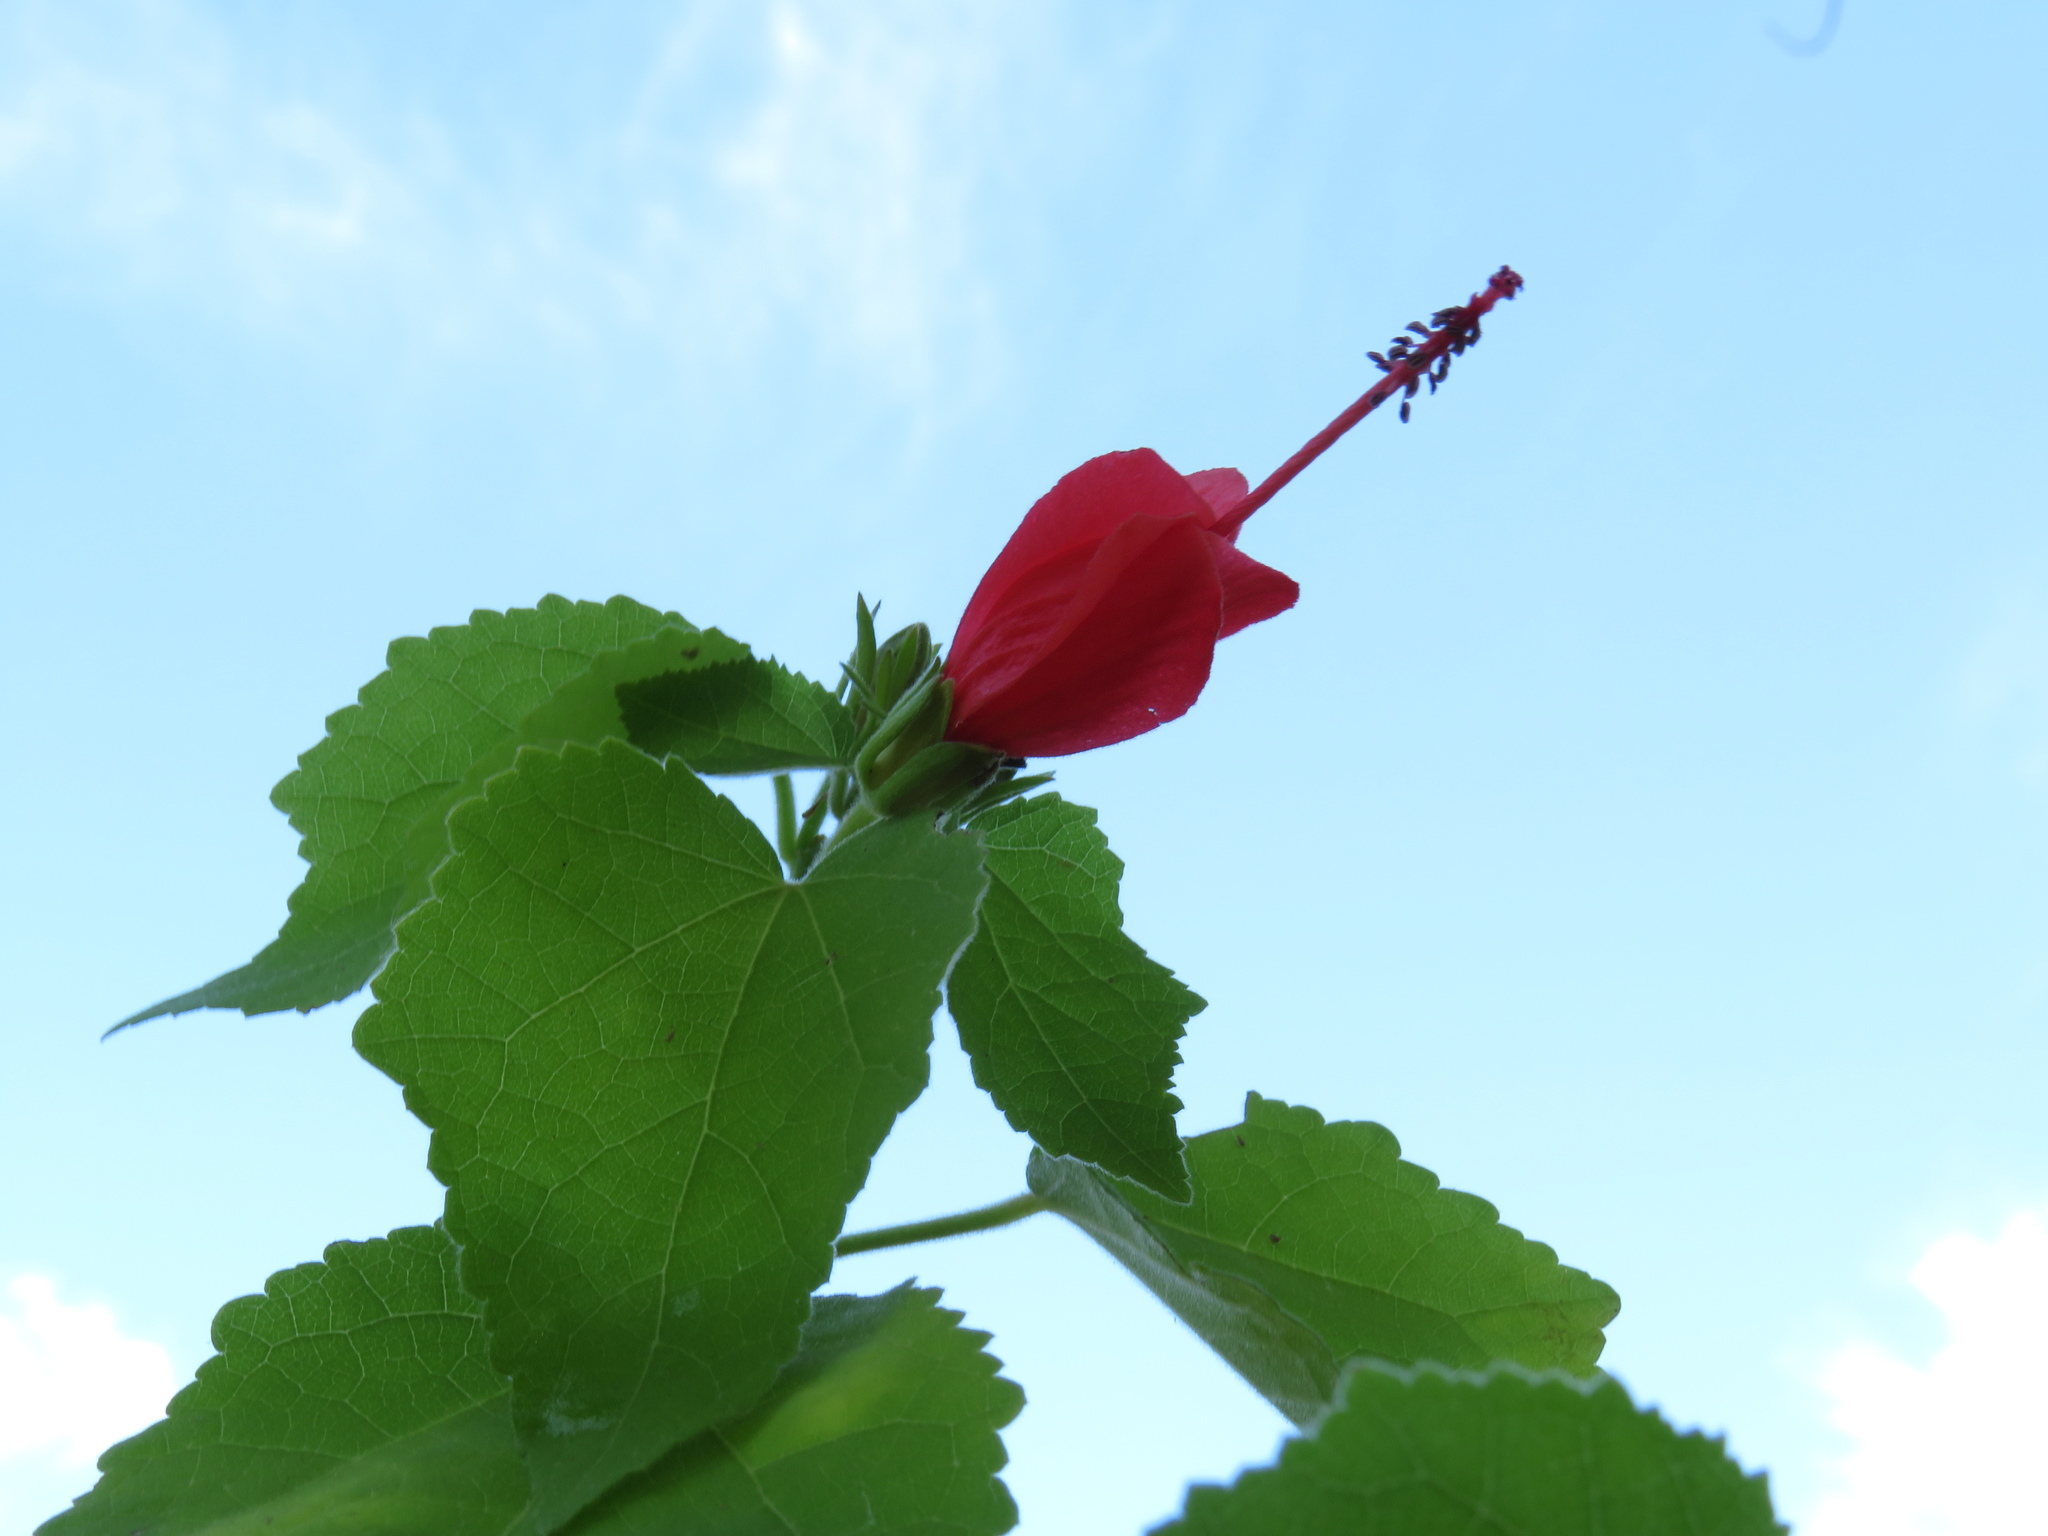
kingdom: Plantae
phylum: Tracheophyta
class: Magnoliopsida
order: Malvales
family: Malvaceae
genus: Malvaviscus
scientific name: Malvaviscus arboreus
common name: Wax mallow
